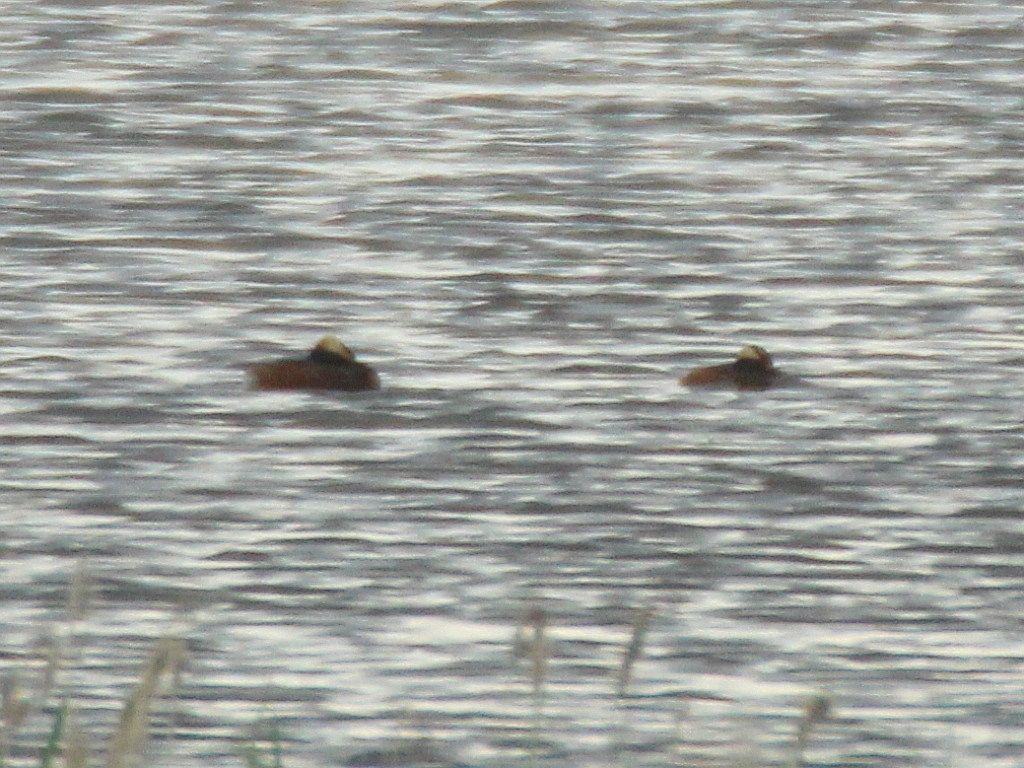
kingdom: Animalia
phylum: Chordata
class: Aves
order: Podicipediformes
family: Podicipedidae
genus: Podiceps
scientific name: Podiceps auritus
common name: Horned grebe
